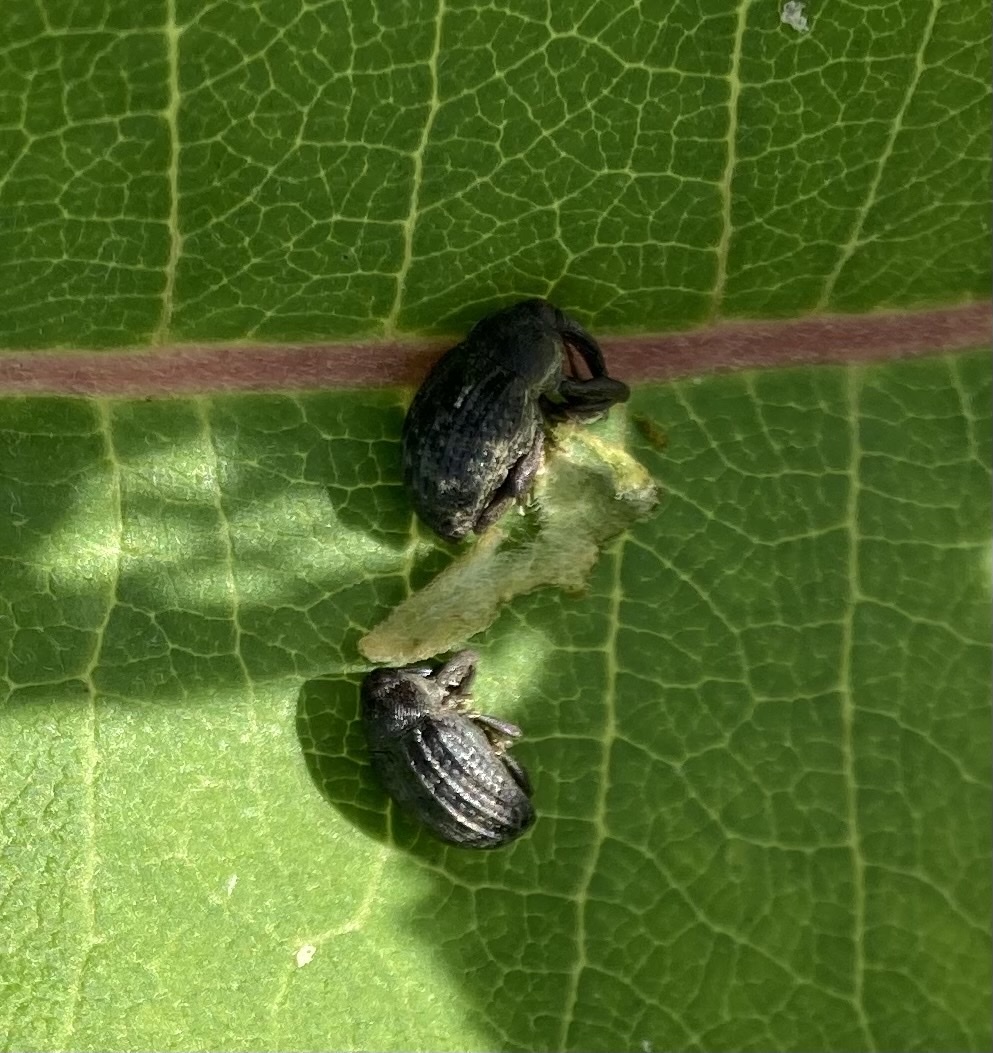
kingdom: Animalia
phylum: Arthropoda
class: Insecta
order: Coleoptera
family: Curculionidae
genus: Rhyssomatus
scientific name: Rhyssomatus lineaticollis
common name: Milkweed stem weevil
